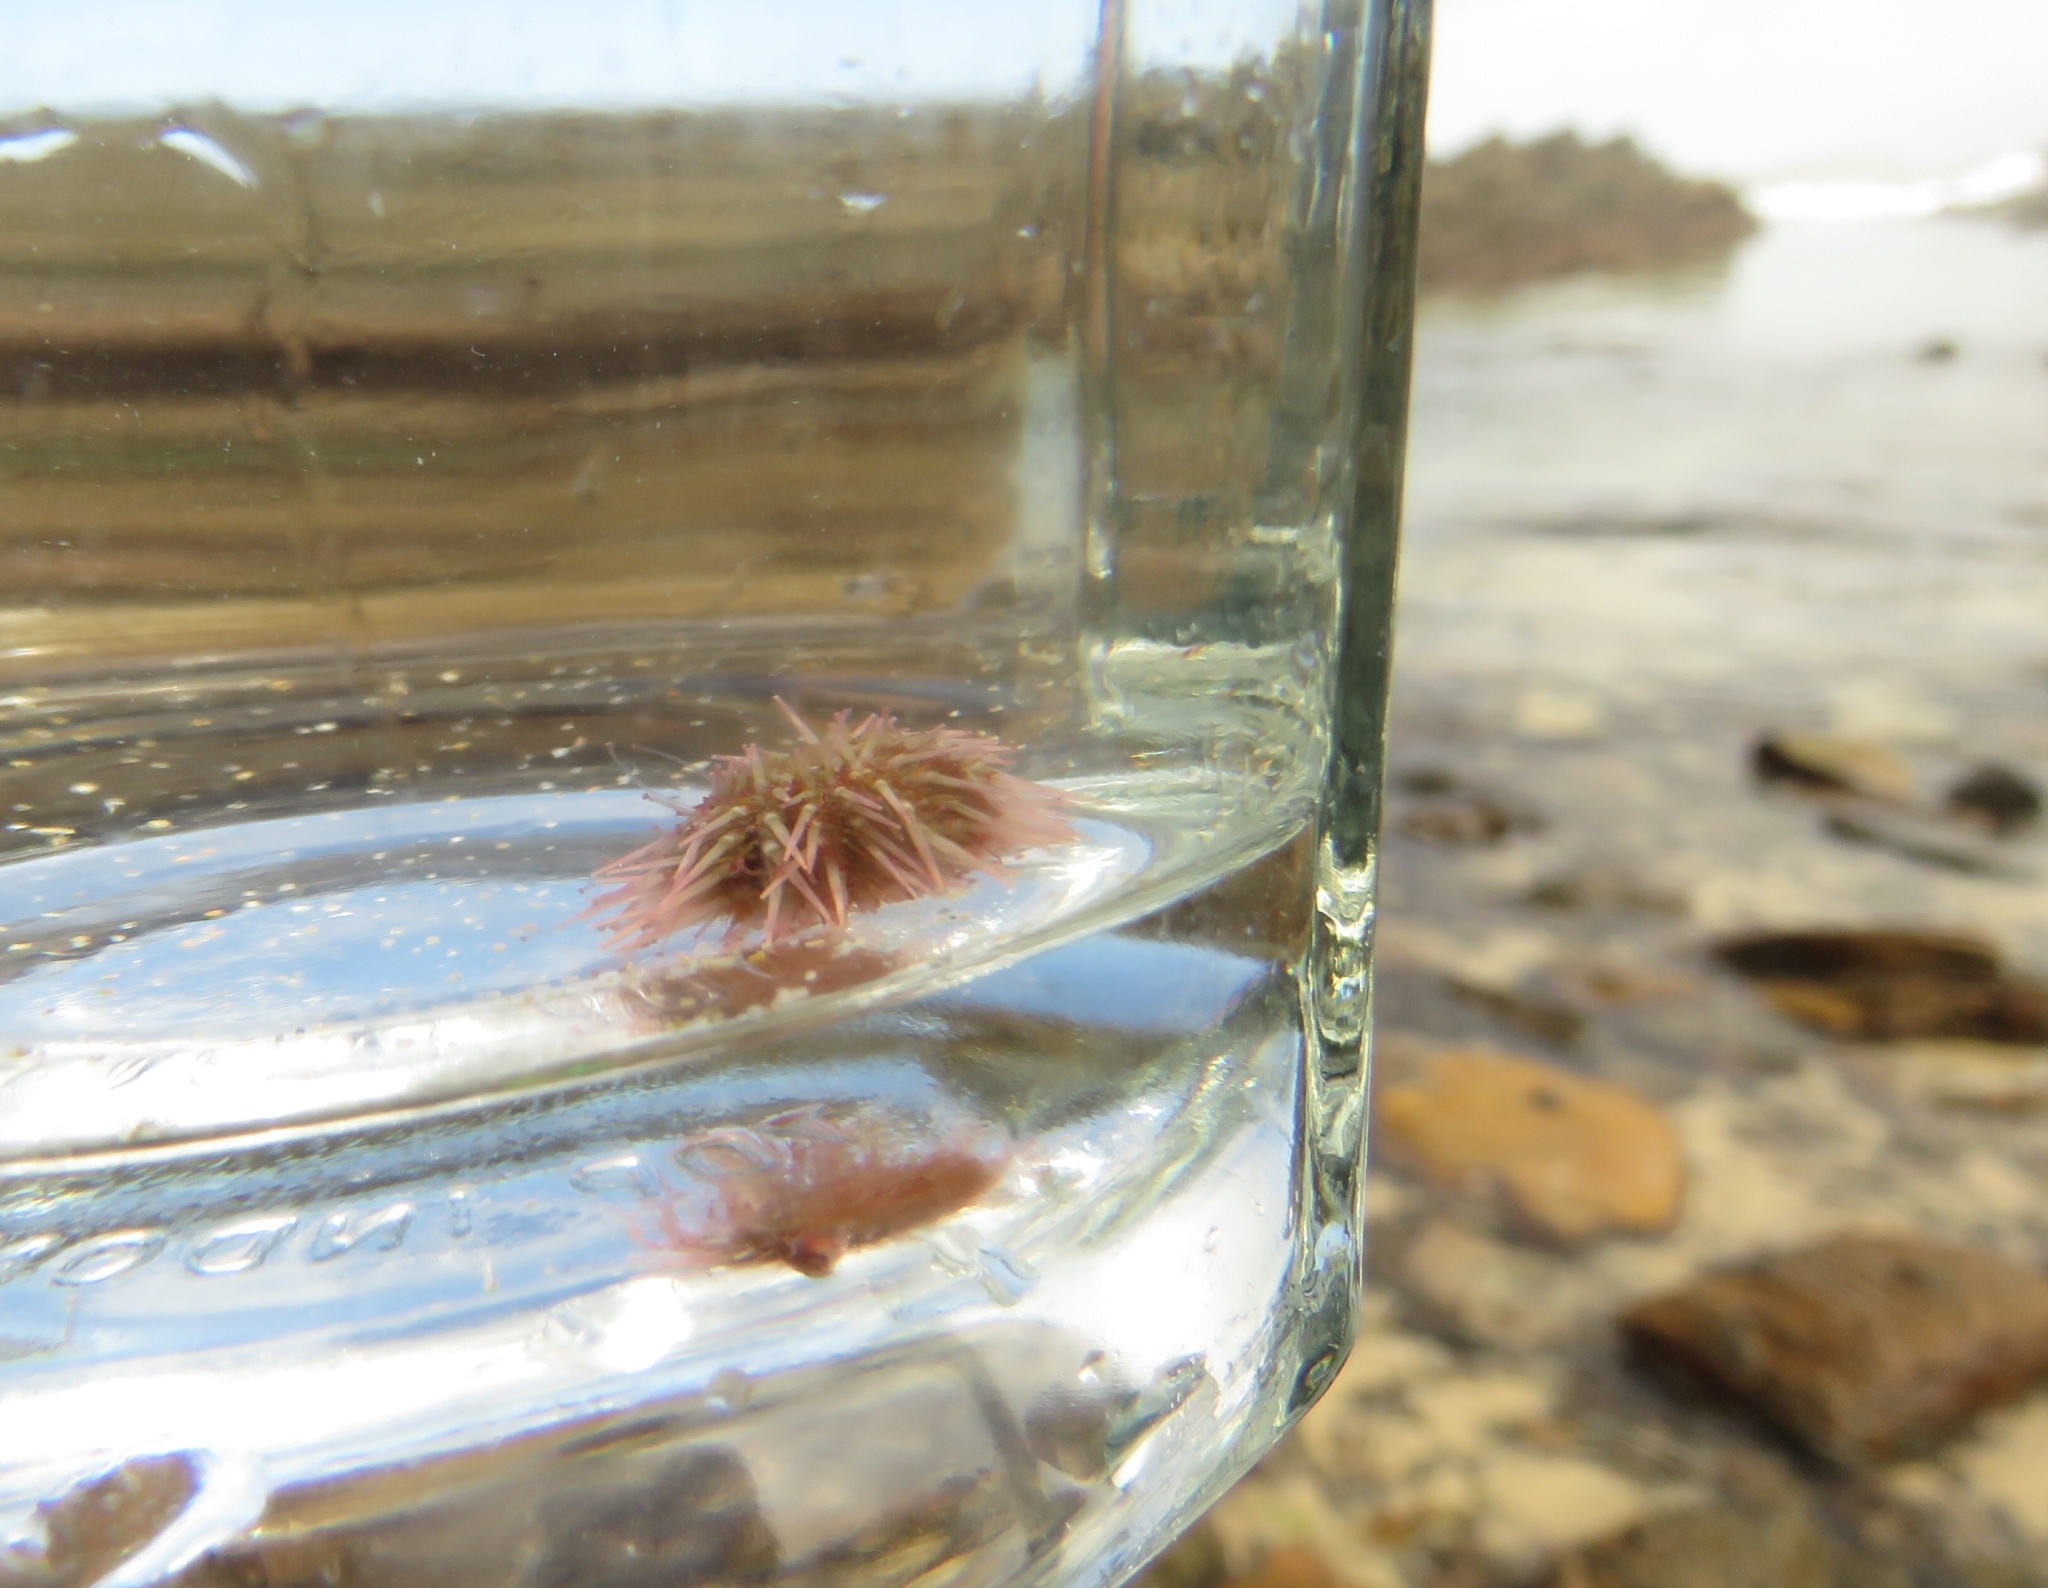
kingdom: Animalia
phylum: Echinodermata
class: Echinoidea
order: Camarodonta
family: Parechinidae
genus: Parechinus
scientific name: Parechinus angulosus
